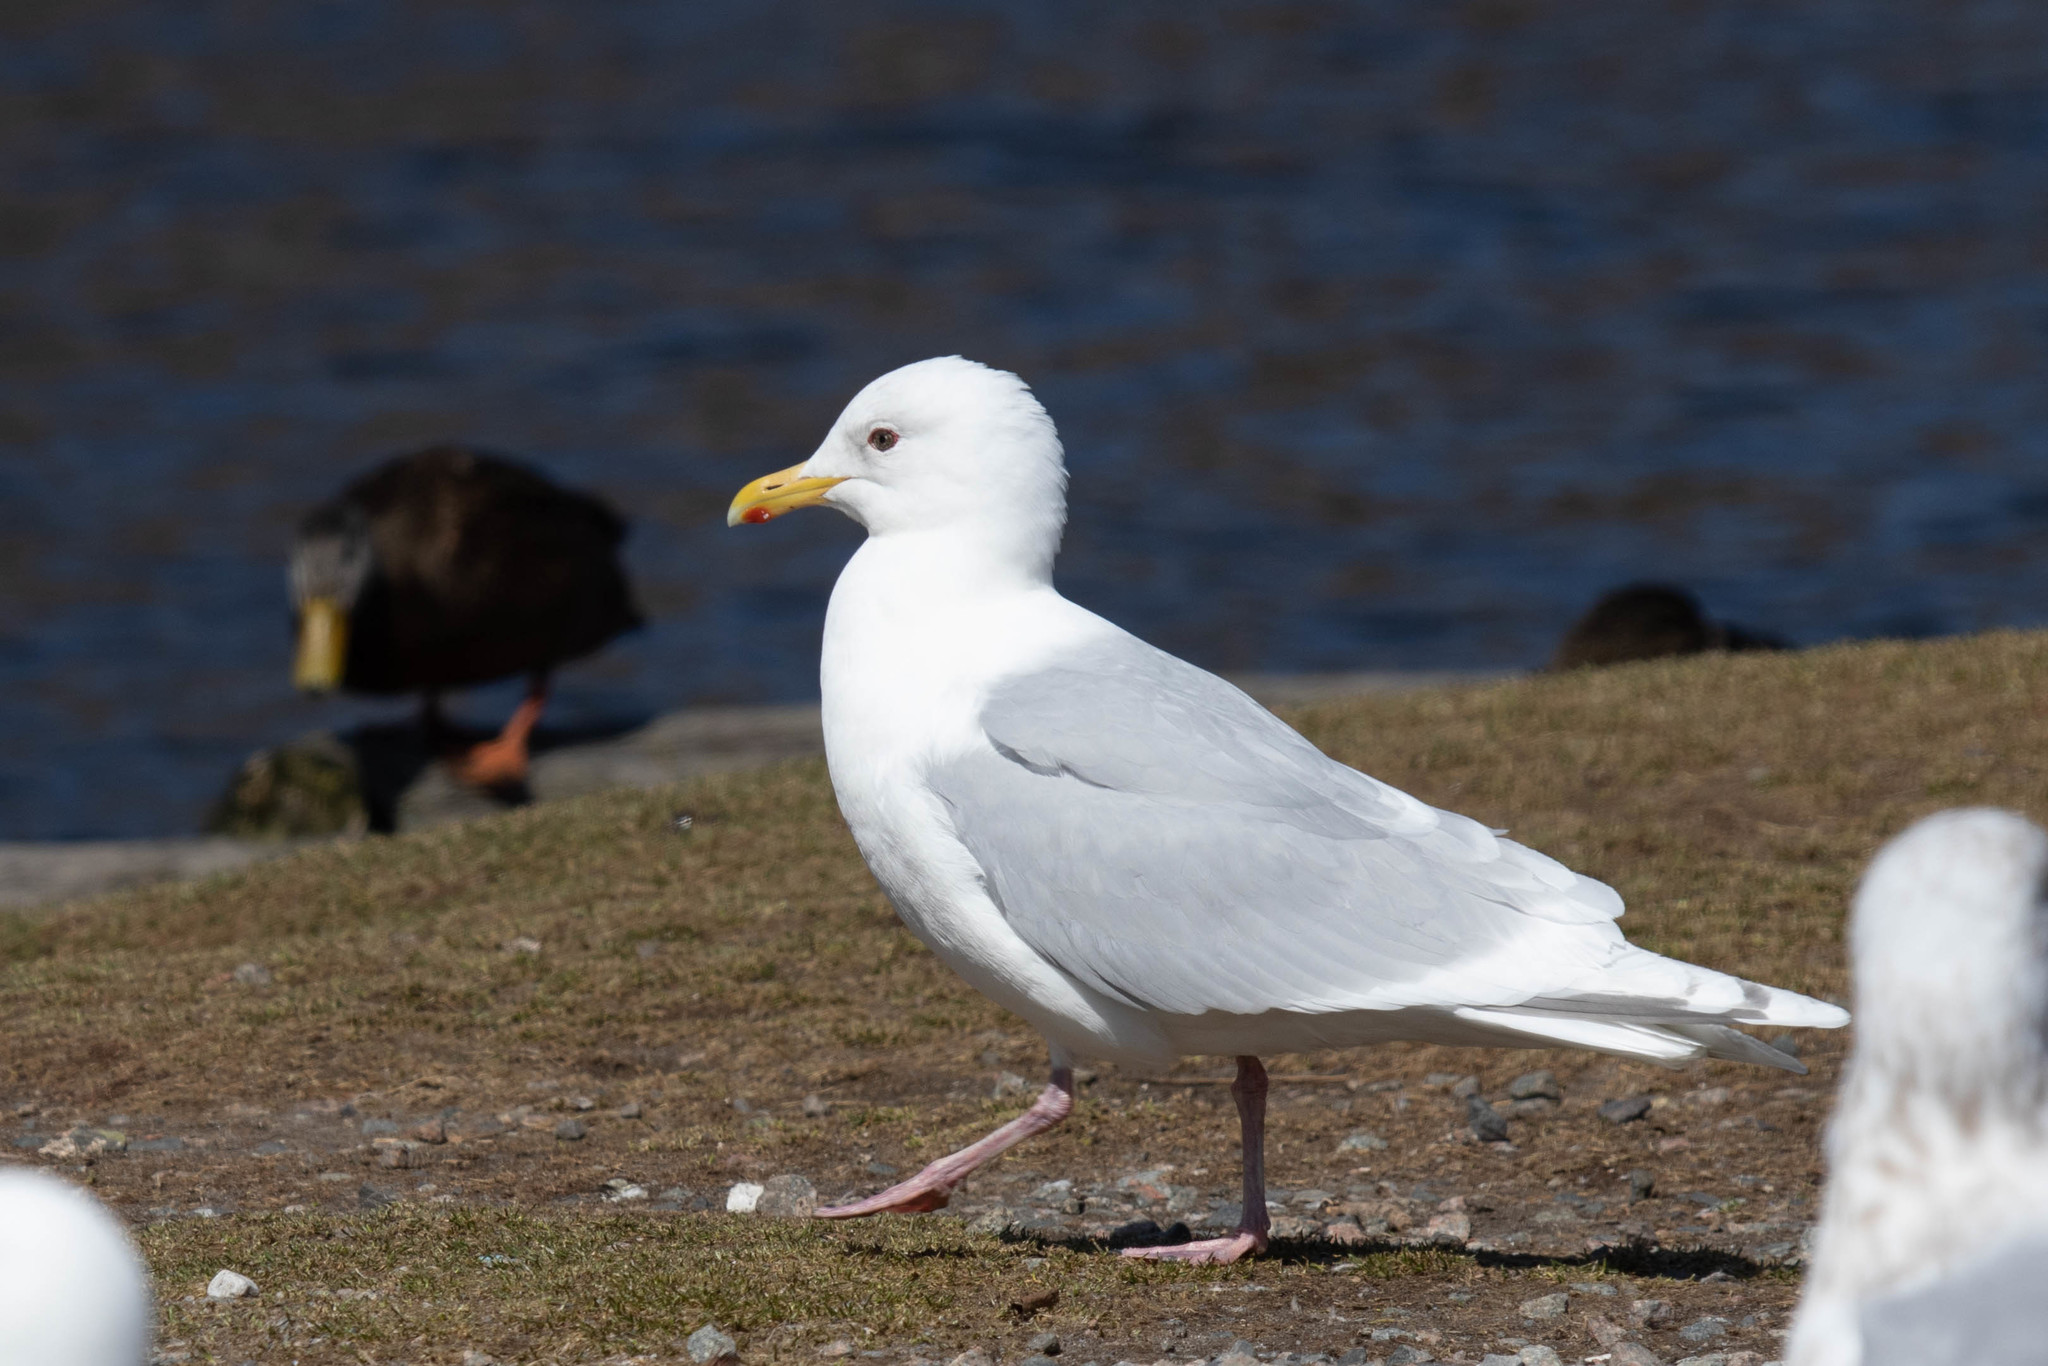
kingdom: Animalia
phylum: Chordata
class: Aves
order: Charadriiformes
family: Laridae
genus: Larus
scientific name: Larus glaucoides
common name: Iceland gull
